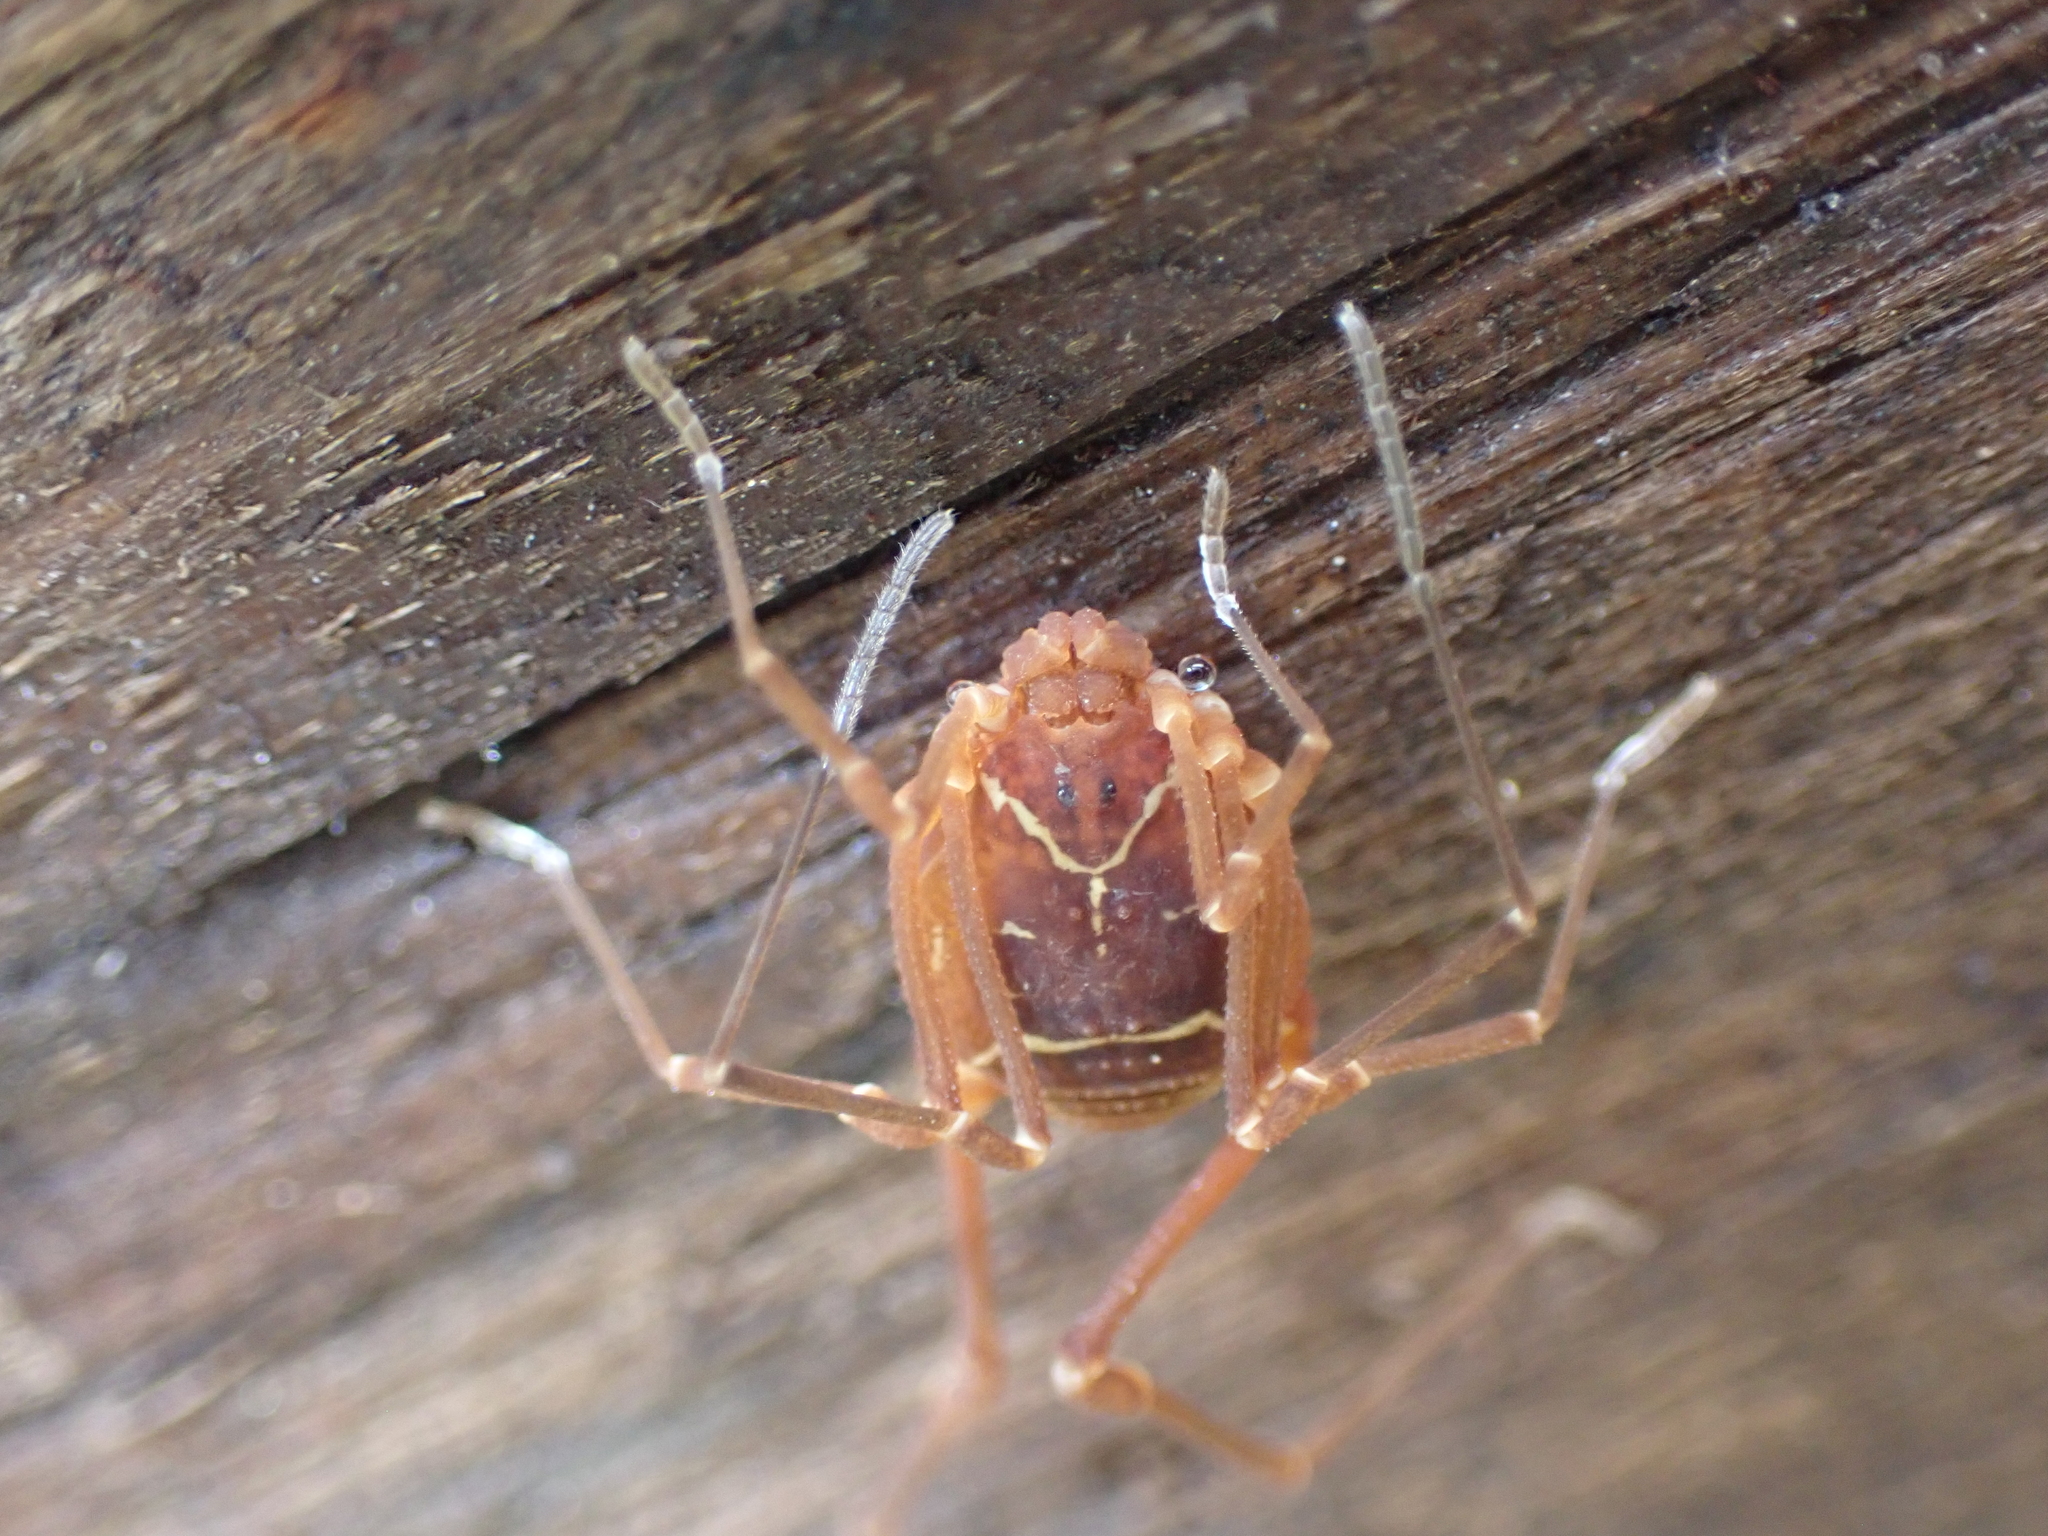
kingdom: Animalia
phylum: Arthropoda
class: Arachnida
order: Opiliones
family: Cosmetidae
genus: Libitioides
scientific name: Libitioides sayi
